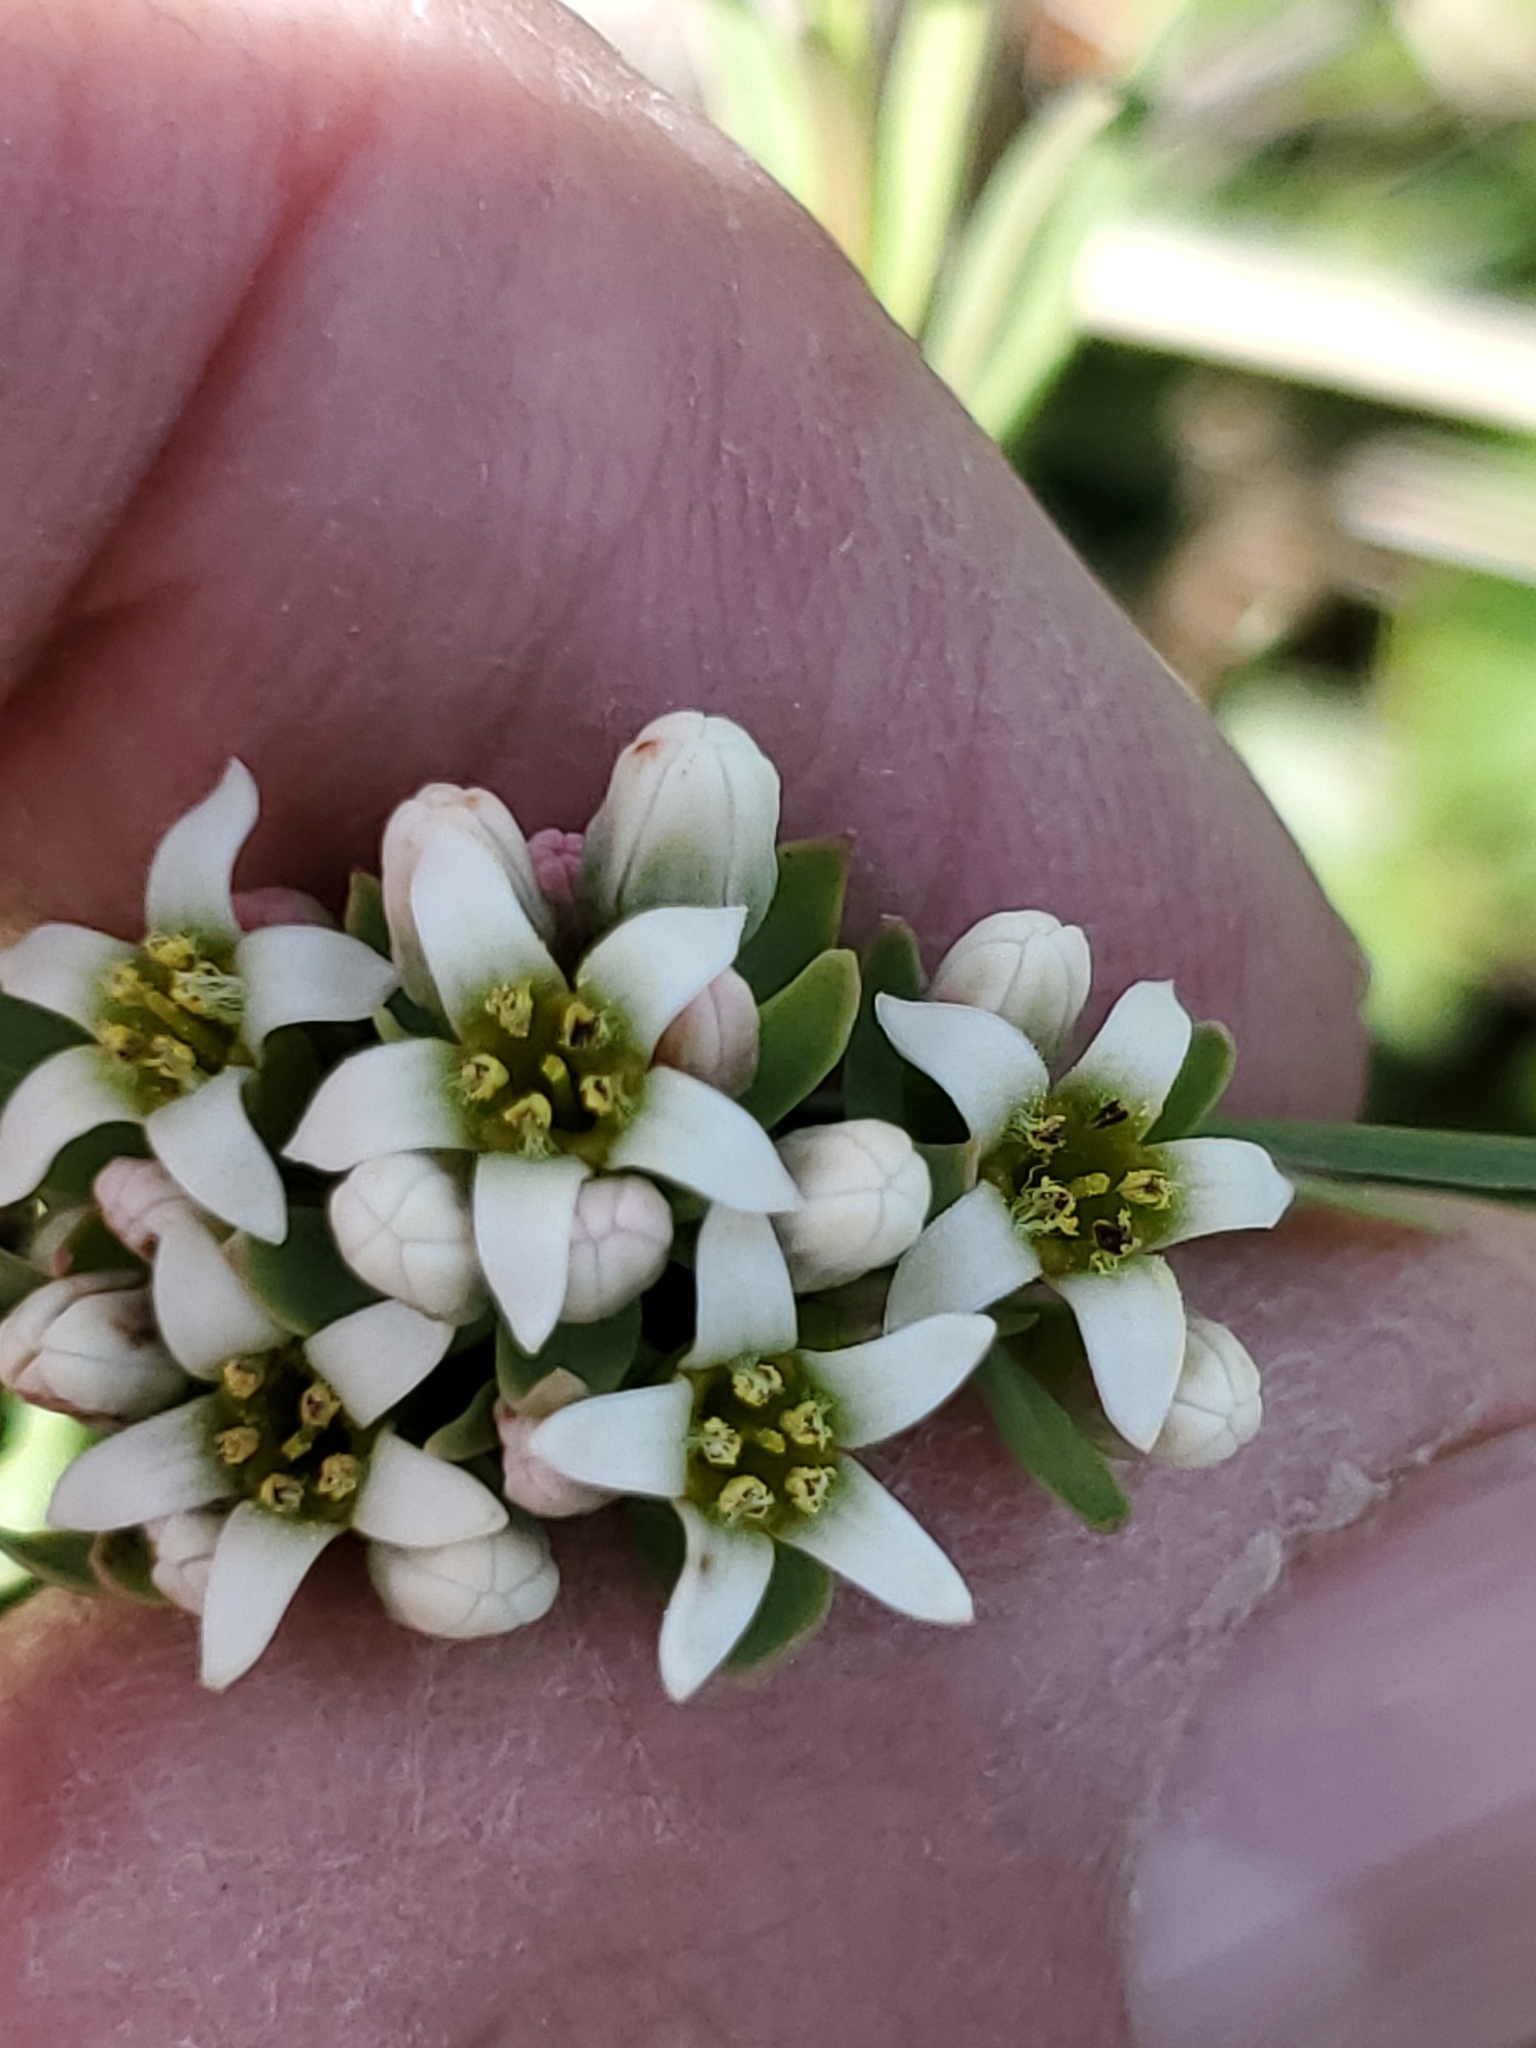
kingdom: Plantae
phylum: Tracheophyta
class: Magnoliopsida
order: Santalales
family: Comandraceae
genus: Comandra
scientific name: Comandra umbellata
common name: Bastard toadflax
